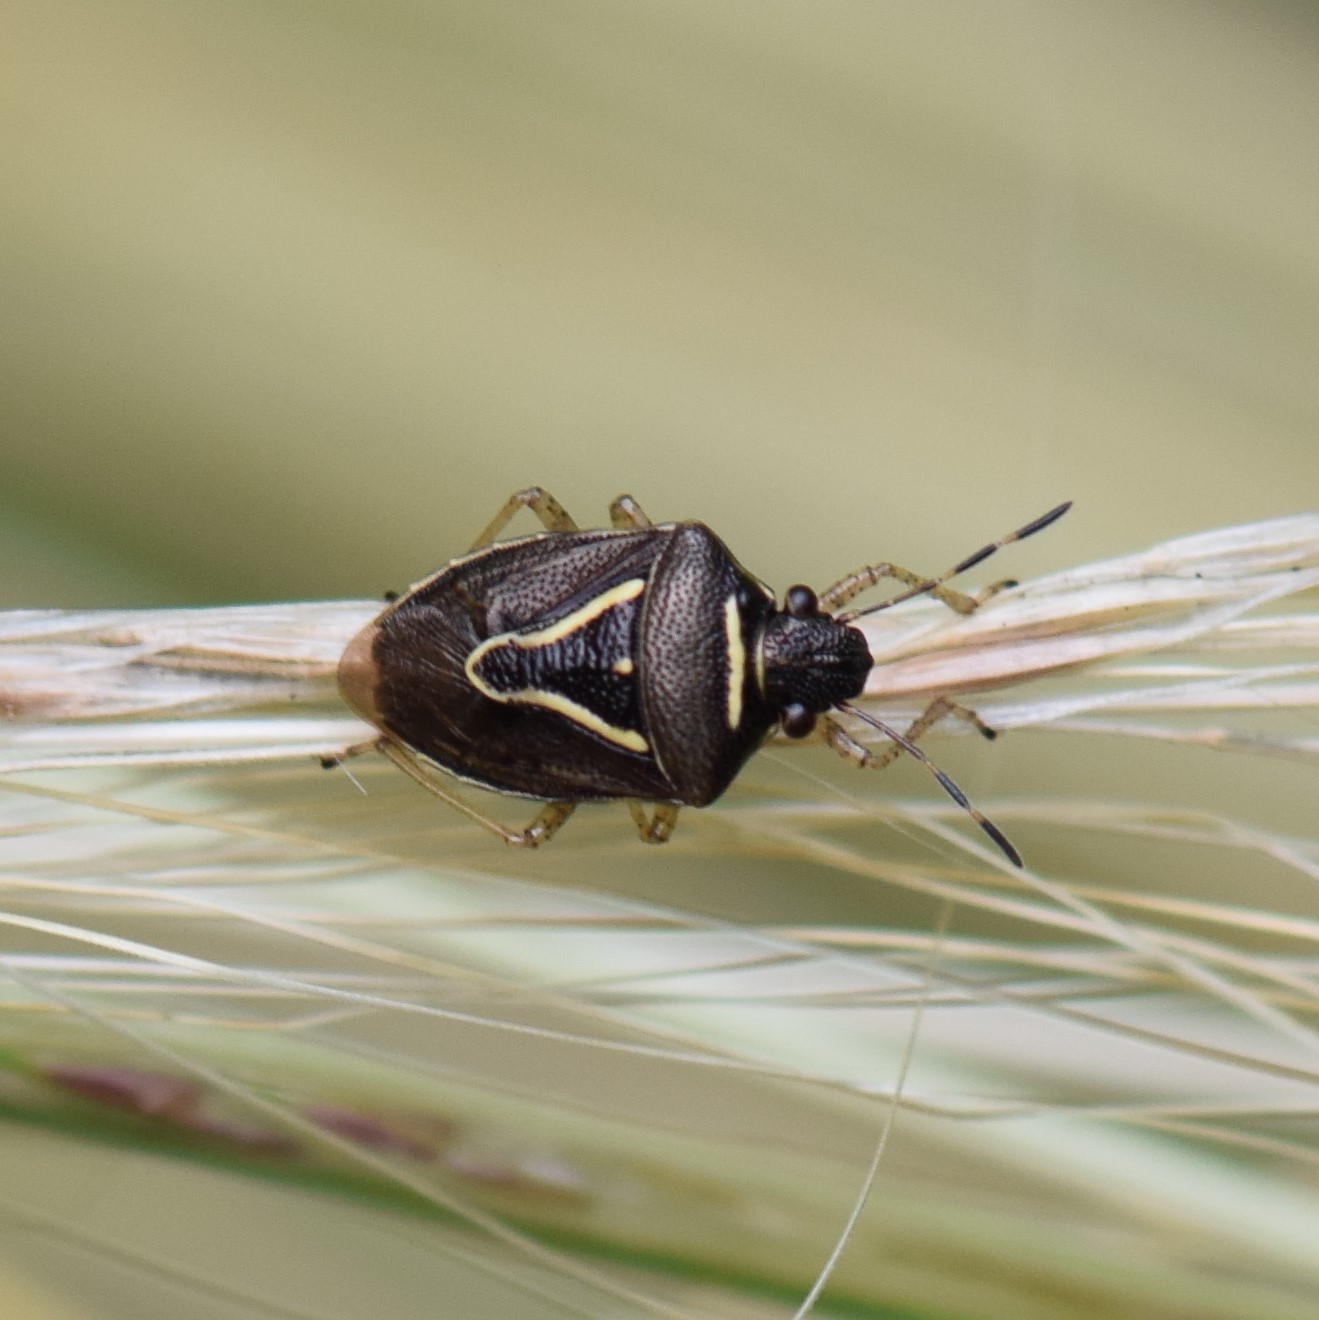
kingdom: Animalia
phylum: Arthropoda
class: Insecta
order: Hemiptera
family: Pentatomidae
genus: Mormidea
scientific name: Mormidea lugens
